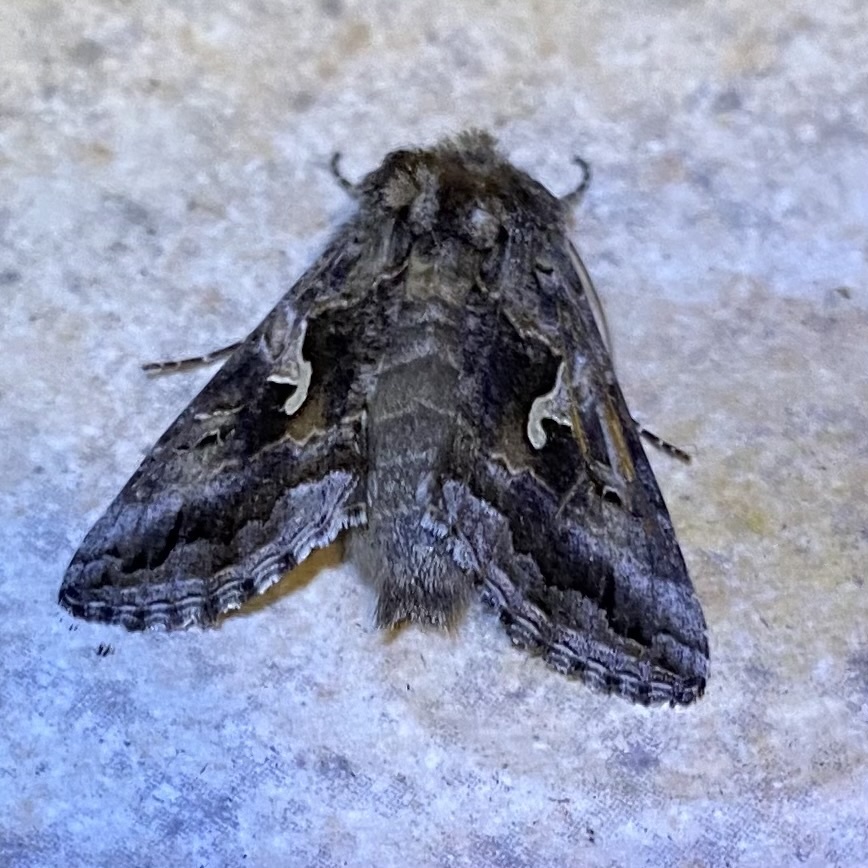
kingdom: Animalia
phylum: Arthropoda
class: Insecta
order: Lepidoptera
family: Noctuidae
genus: Autographa
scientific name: Autographa californica
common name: Alfalfa looper
